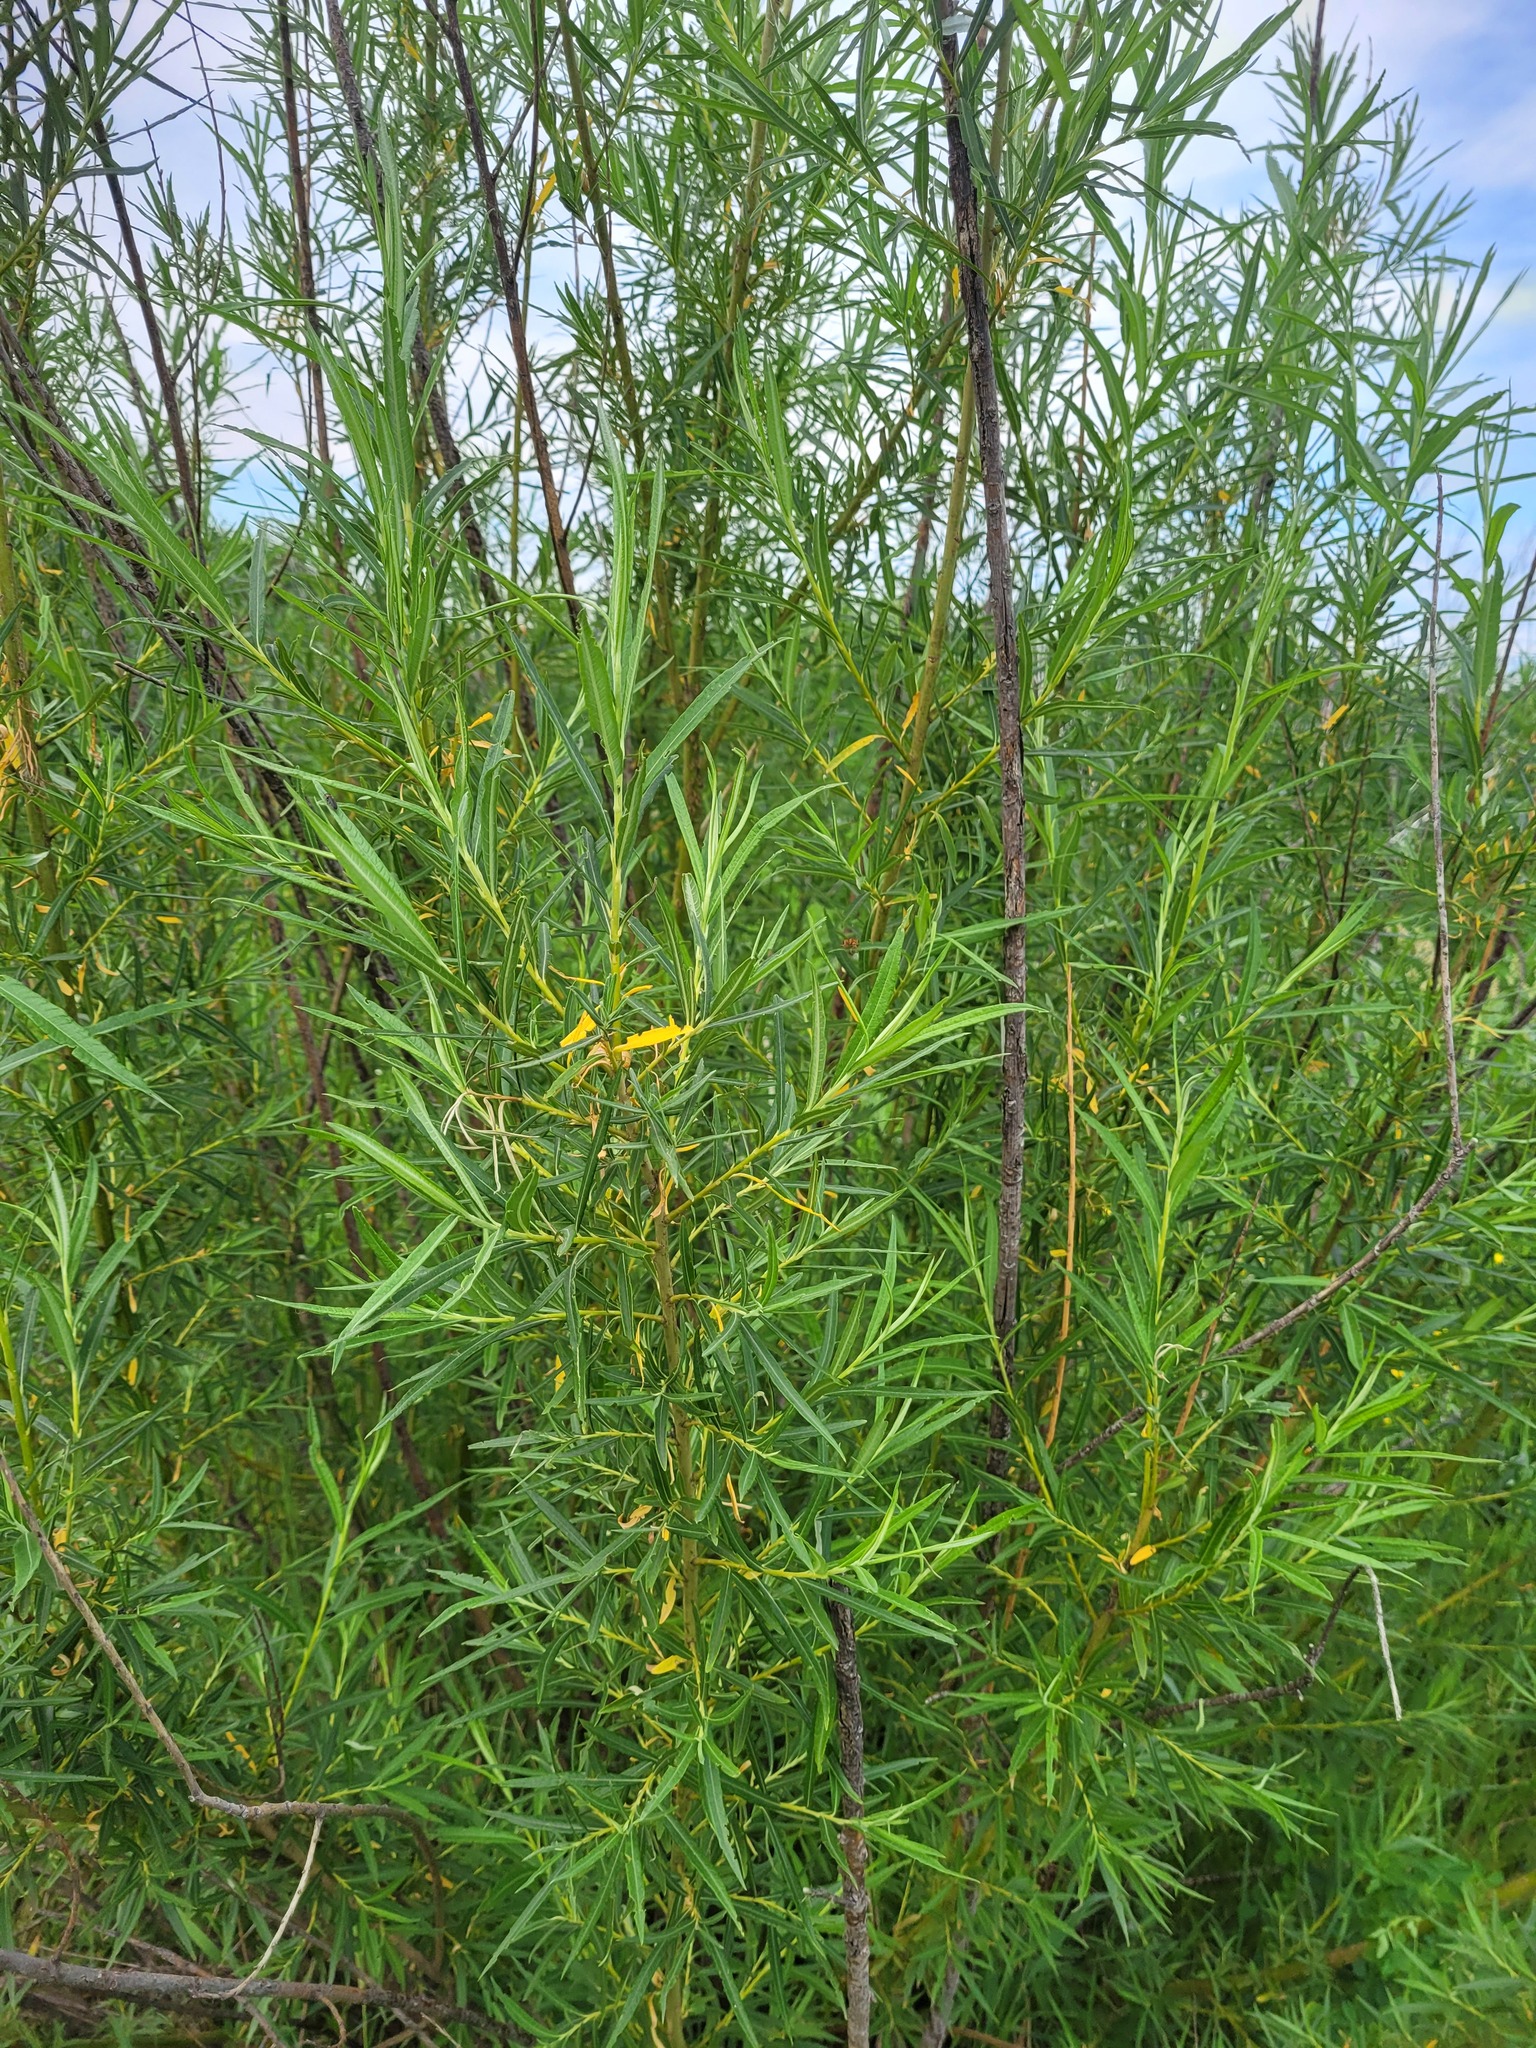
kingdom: Plantae
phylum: Tracheophyta
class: Magnoliopsida
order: Malpighiales
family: Salicaceae
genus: Salix
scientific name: Salix viminalis
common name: Osier
